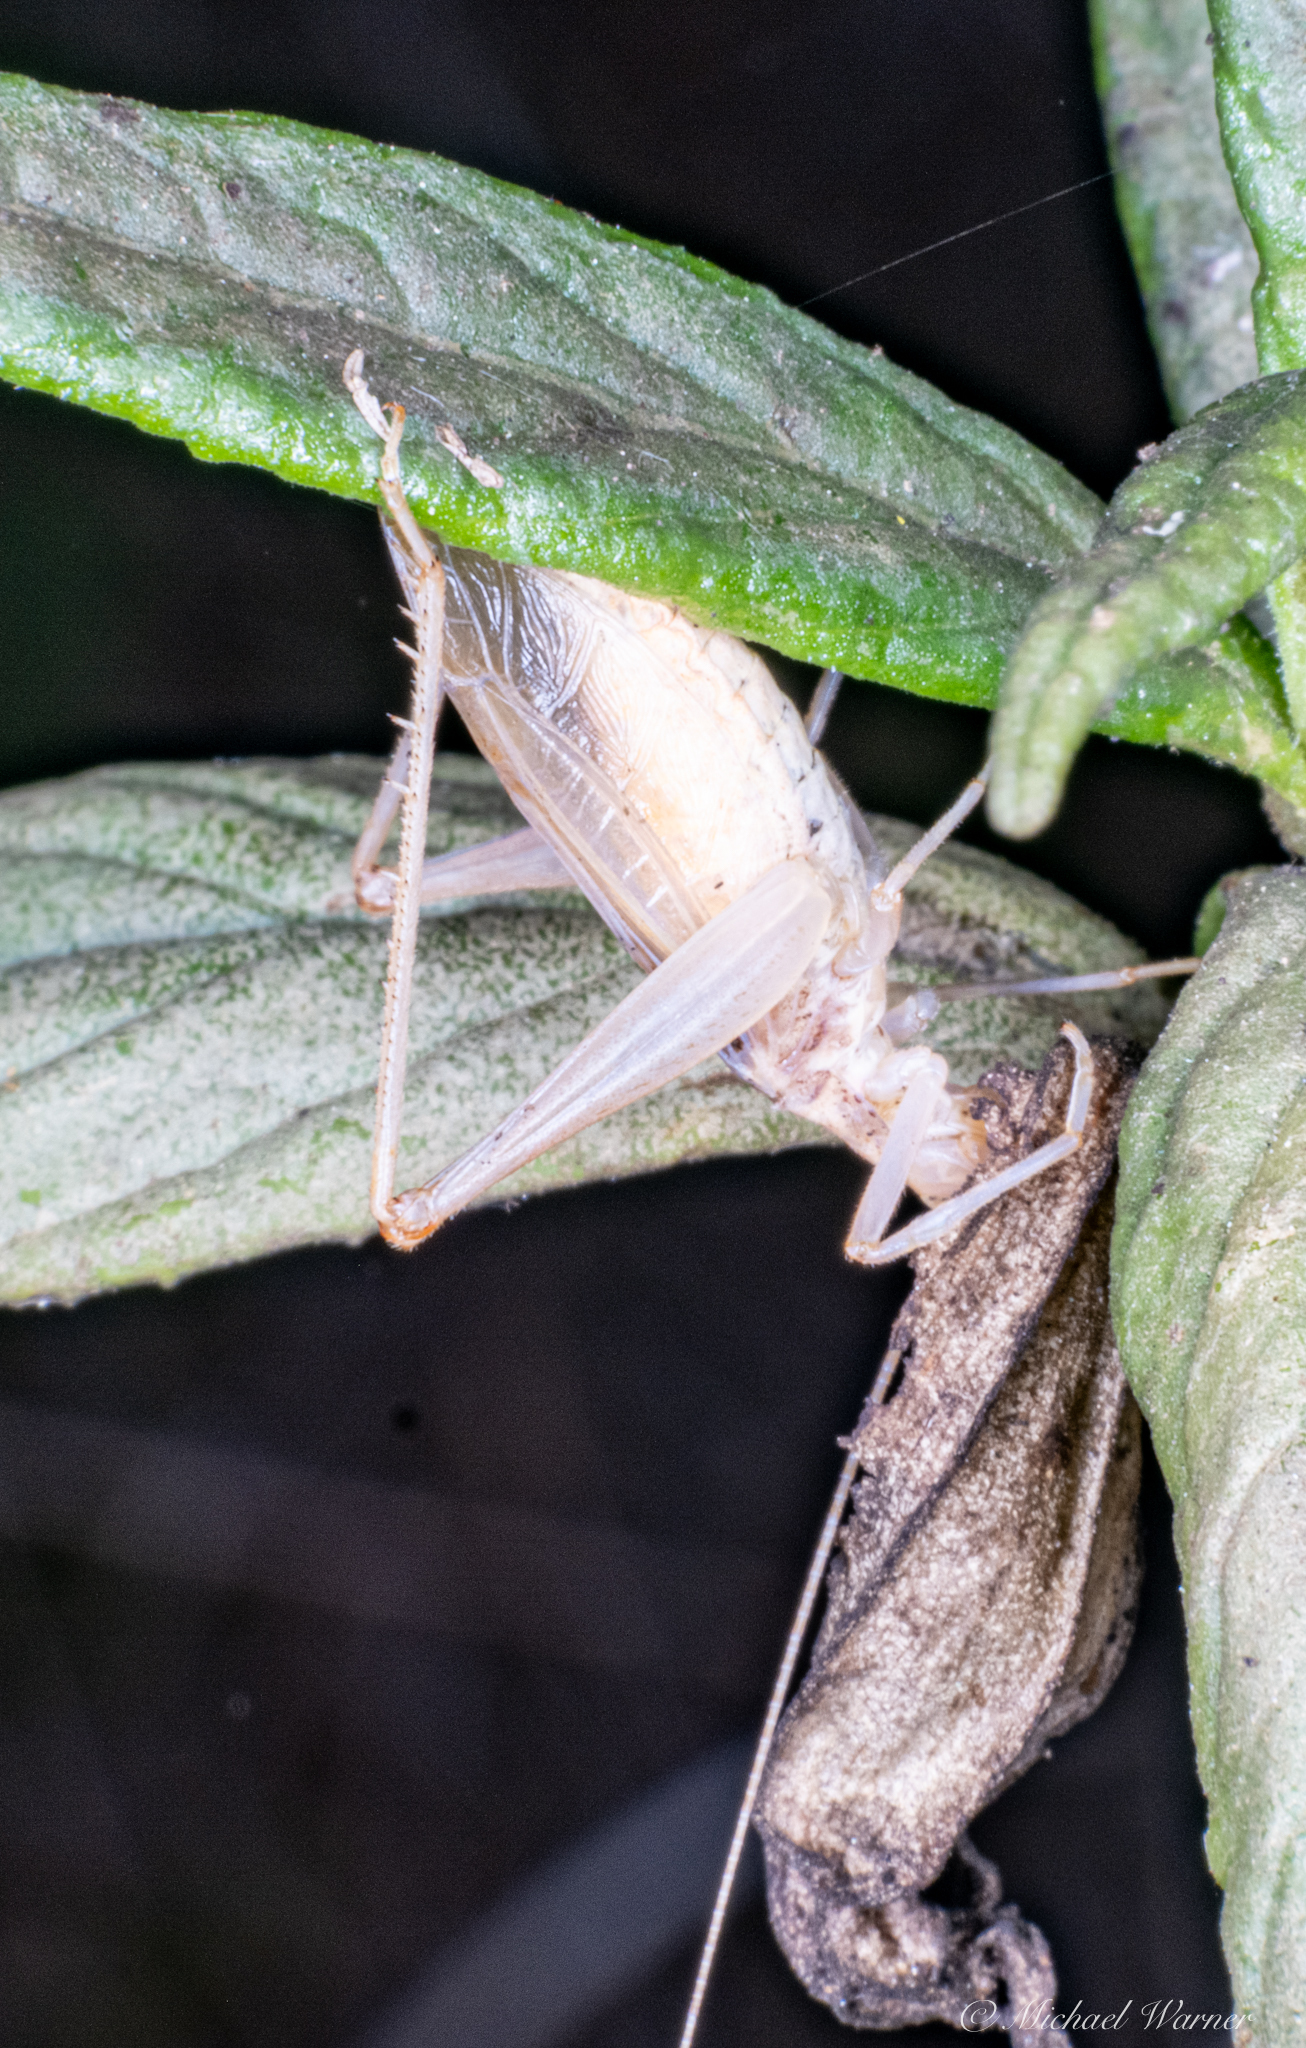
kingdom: Animalia
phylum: Arthropoda
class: Insecta
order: Orthoptera
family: Gryllidae
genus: Oecanthus
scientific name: Oecanthus californicus
